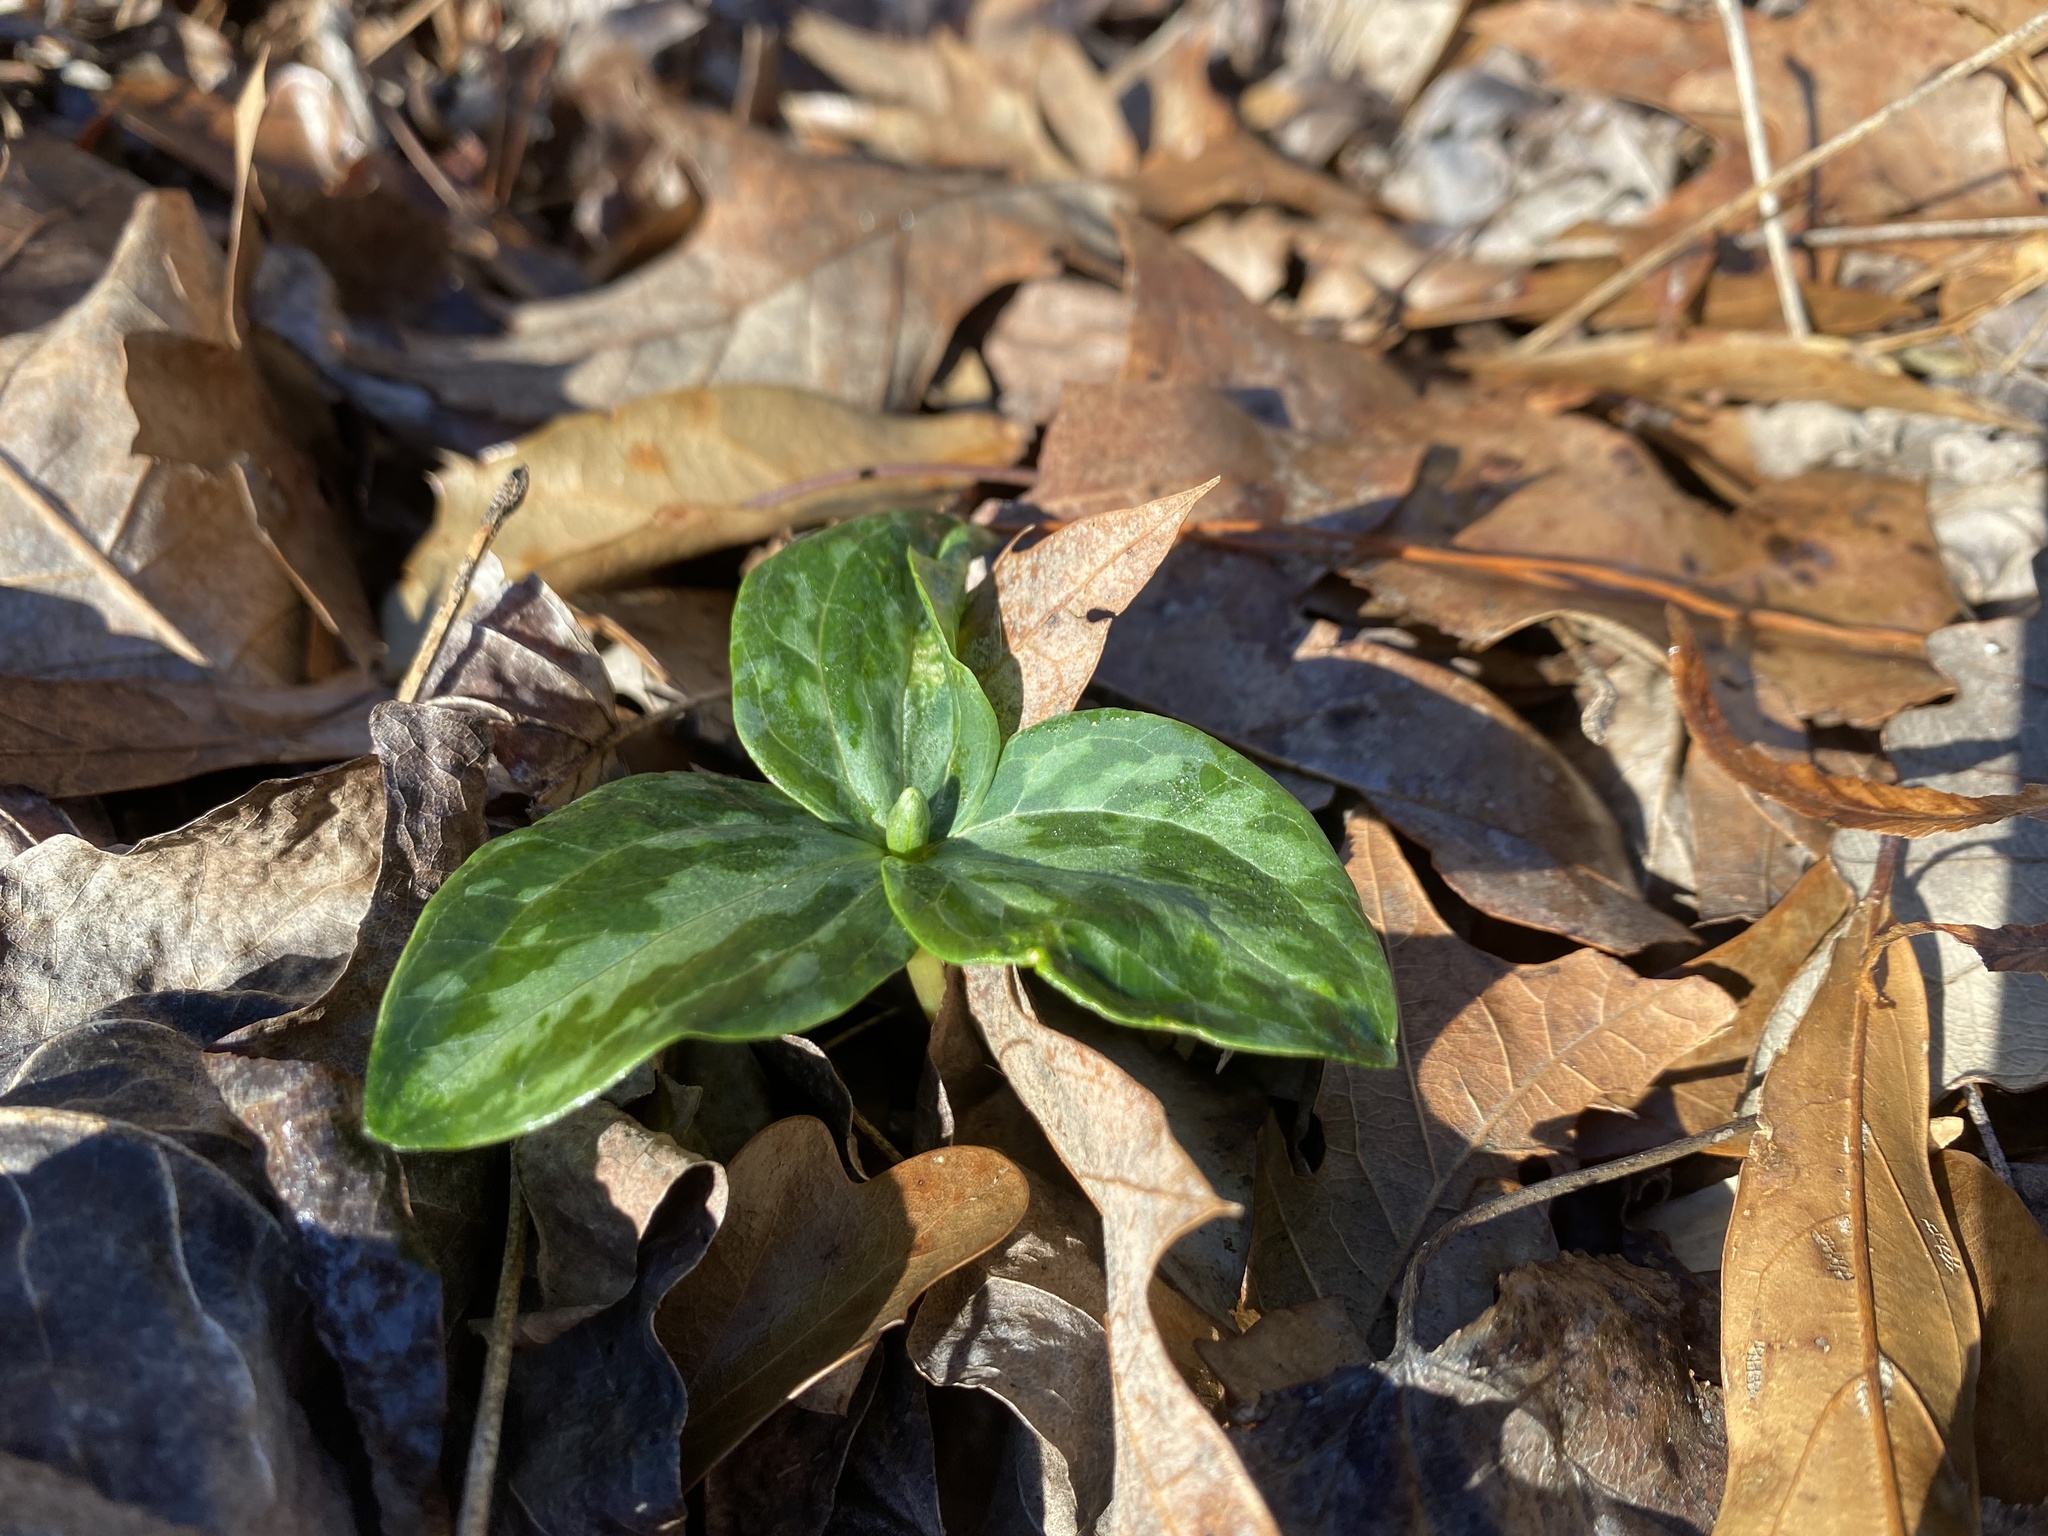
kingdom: Plantae
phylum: Tracheophyta
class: Liliopsida
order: Liliales
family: Melanthiaceae
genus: Trillium
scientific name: Trillium foetidissimum
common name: Mississippi river trillium
